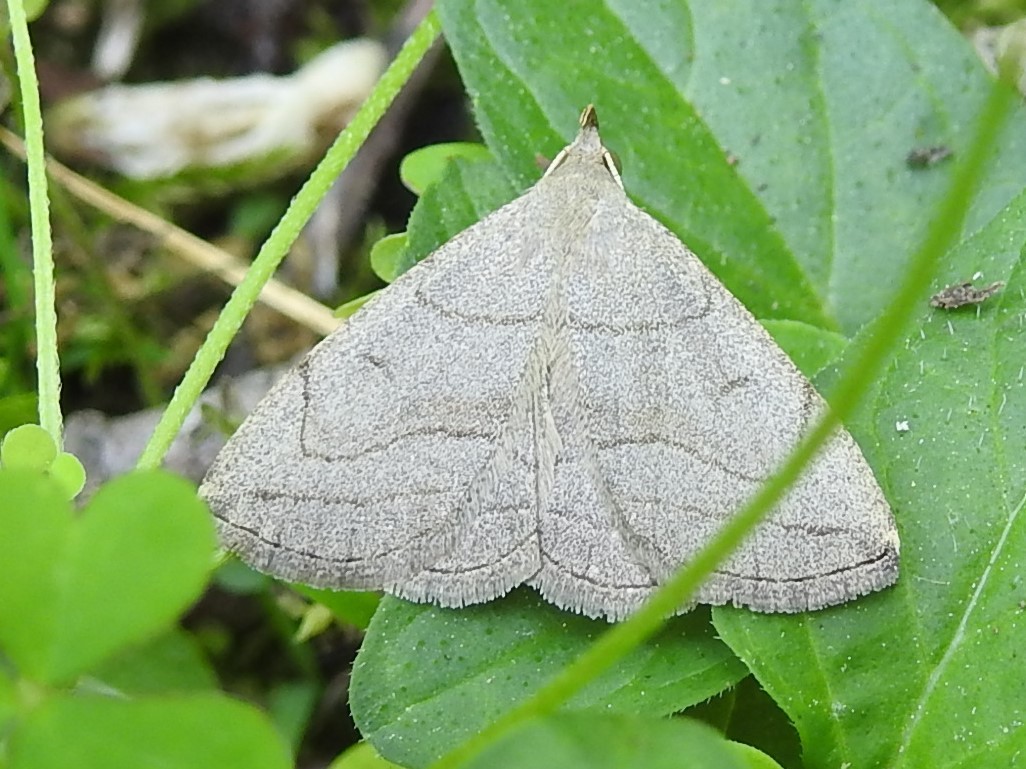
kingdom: Animalia
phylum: Arthropoda
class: Insecta
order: Lepidoptera
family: Erebidae
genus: Zanclognatha
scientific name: Zanclognatha pedipilalis
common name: Grayish fan-foot
